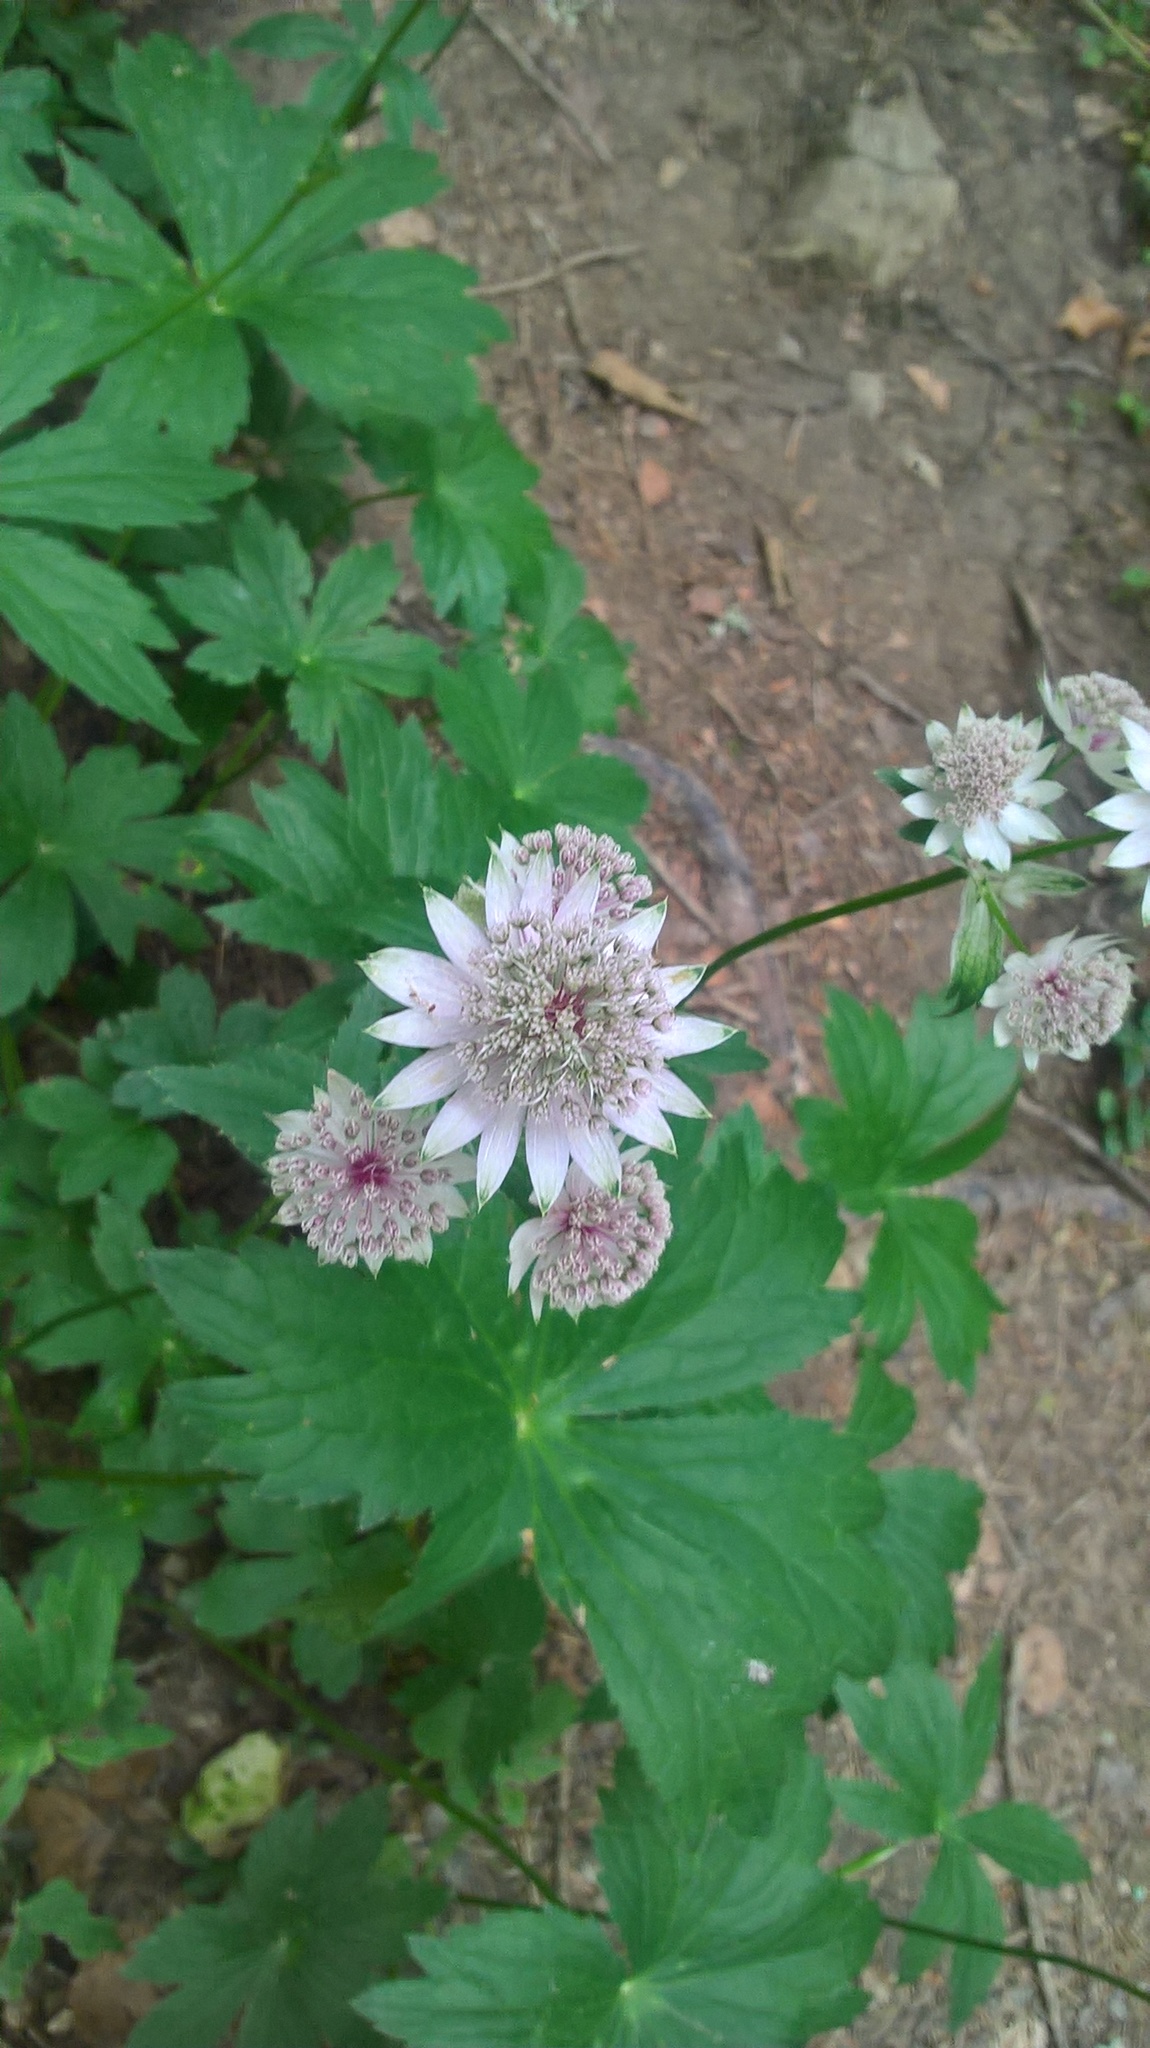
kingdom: Plantae
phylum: Tracheophyta
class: Magnoliopsida
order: Apiales
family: Apiaceae
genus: Astrantia
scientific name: Astrantia major
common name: Greater masterwort
